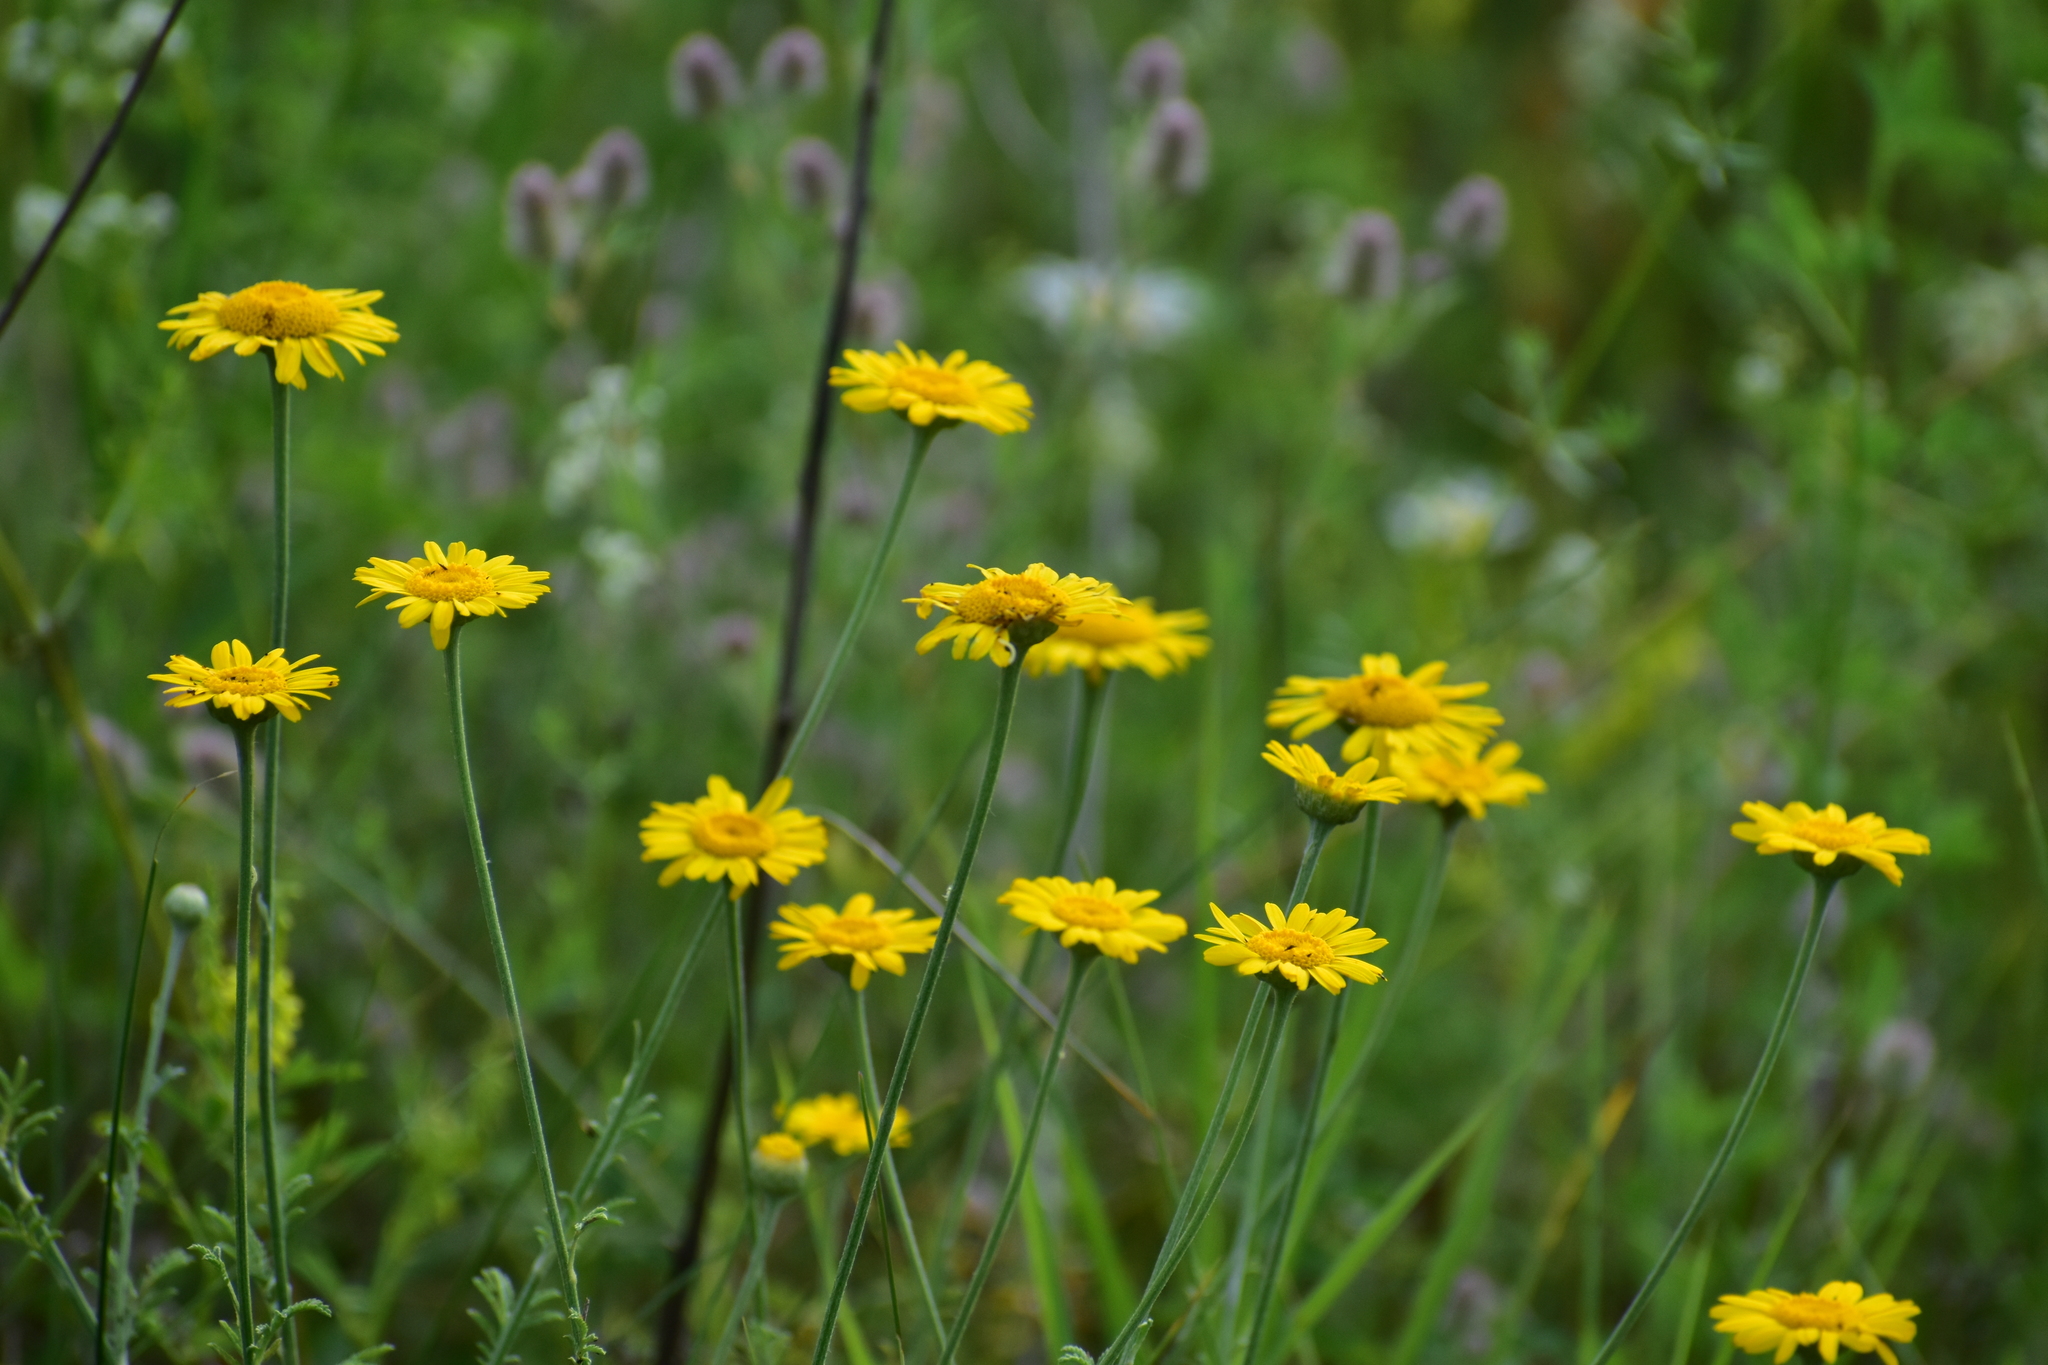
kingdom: Plantae
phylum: Tracheophyta
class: Magnoliopsida
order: Asterales
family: Asteraceae
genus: Cota
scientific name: Cota tinctoria
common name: Golden chamomile
